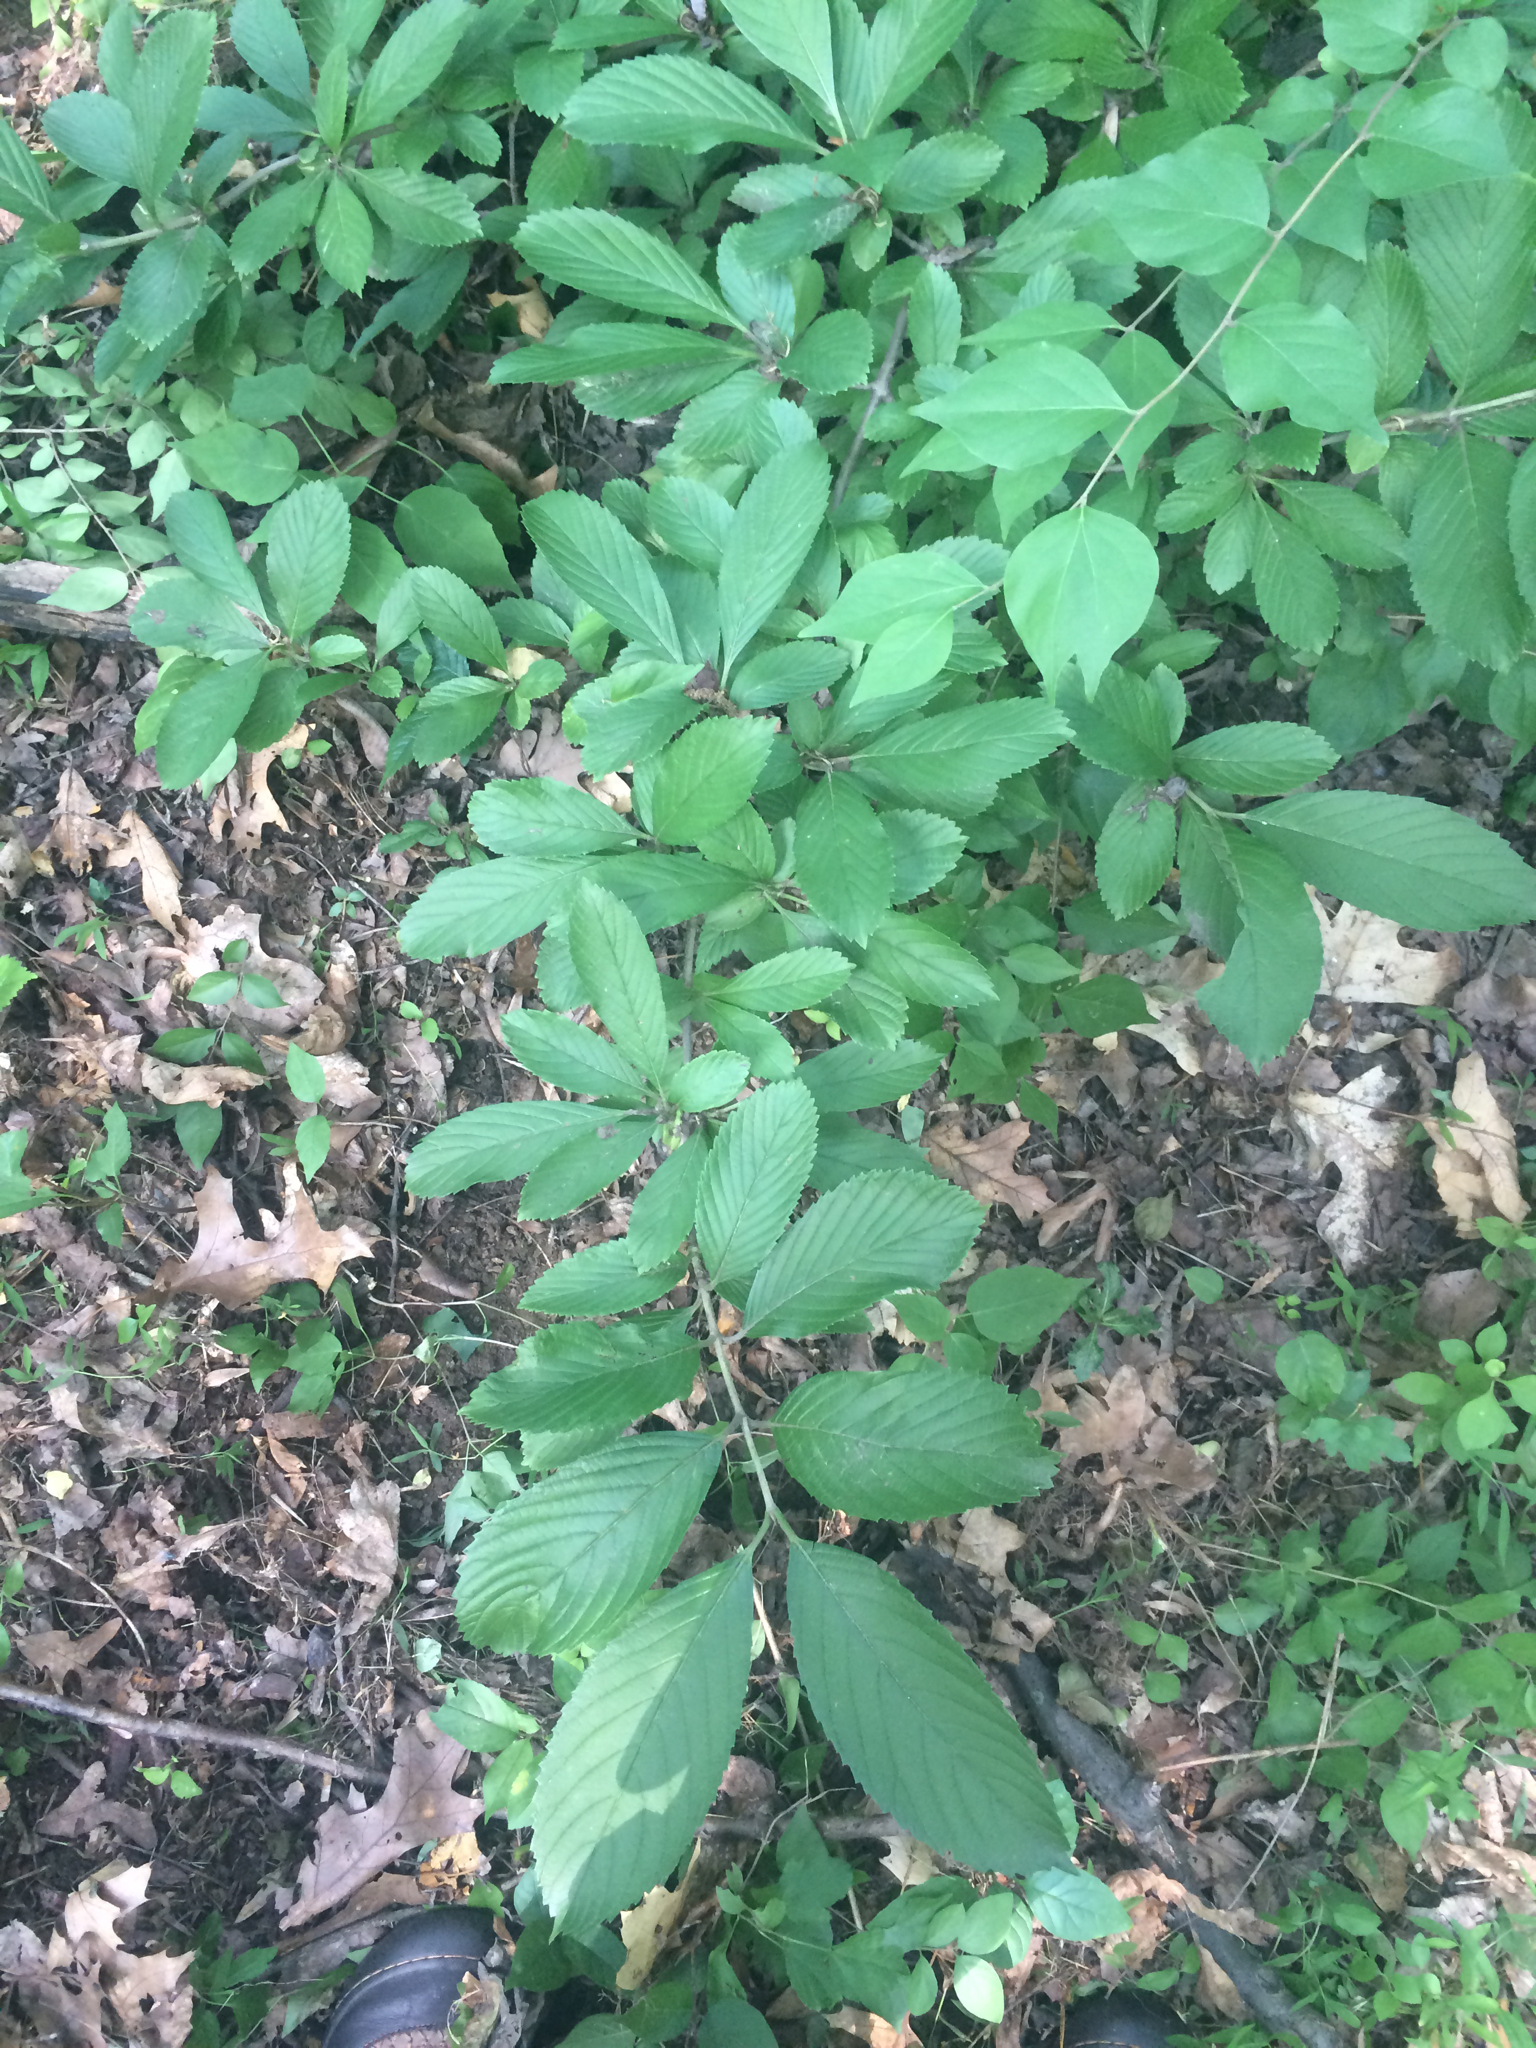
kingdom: Plantae
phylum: Tracheophyta
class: Magnoliopsida
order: Dipsacales
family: Viburnaceae
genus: Viburnum
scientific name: Viburnum sieboldii
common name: Siebold's arrowwood
